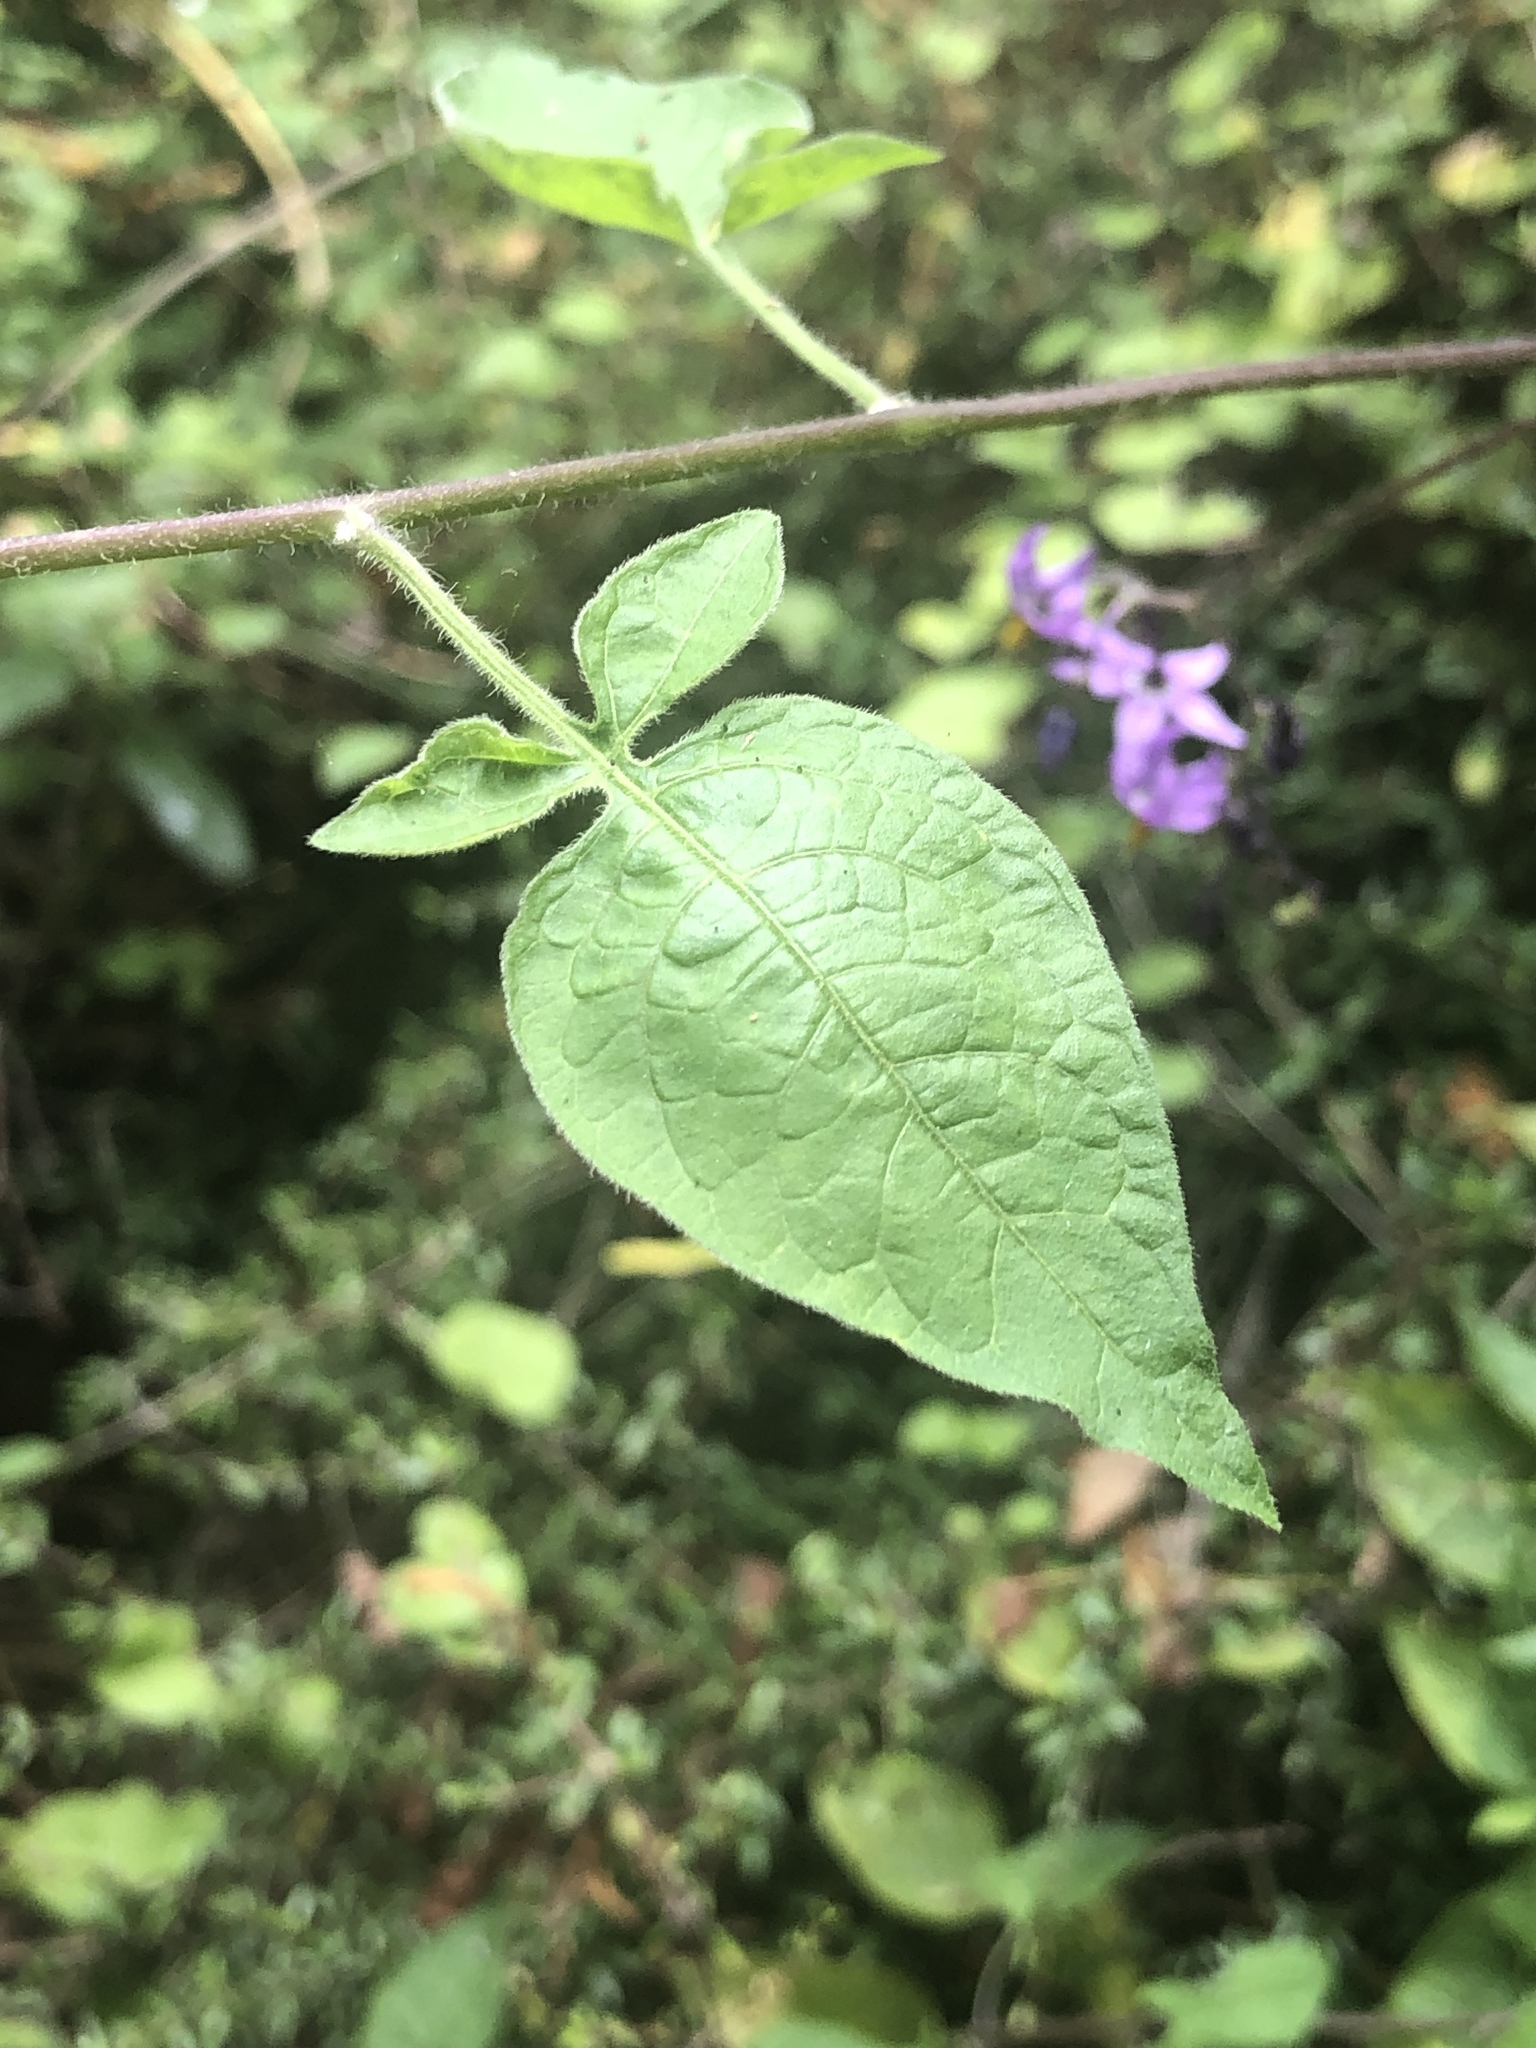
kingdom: Plantae
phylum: Tracheophyta
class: Magnoliopsida
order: Solanales
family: Solanaceae
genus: Solanum
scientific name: Solanum dulcamara
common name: Climbing nightshade
